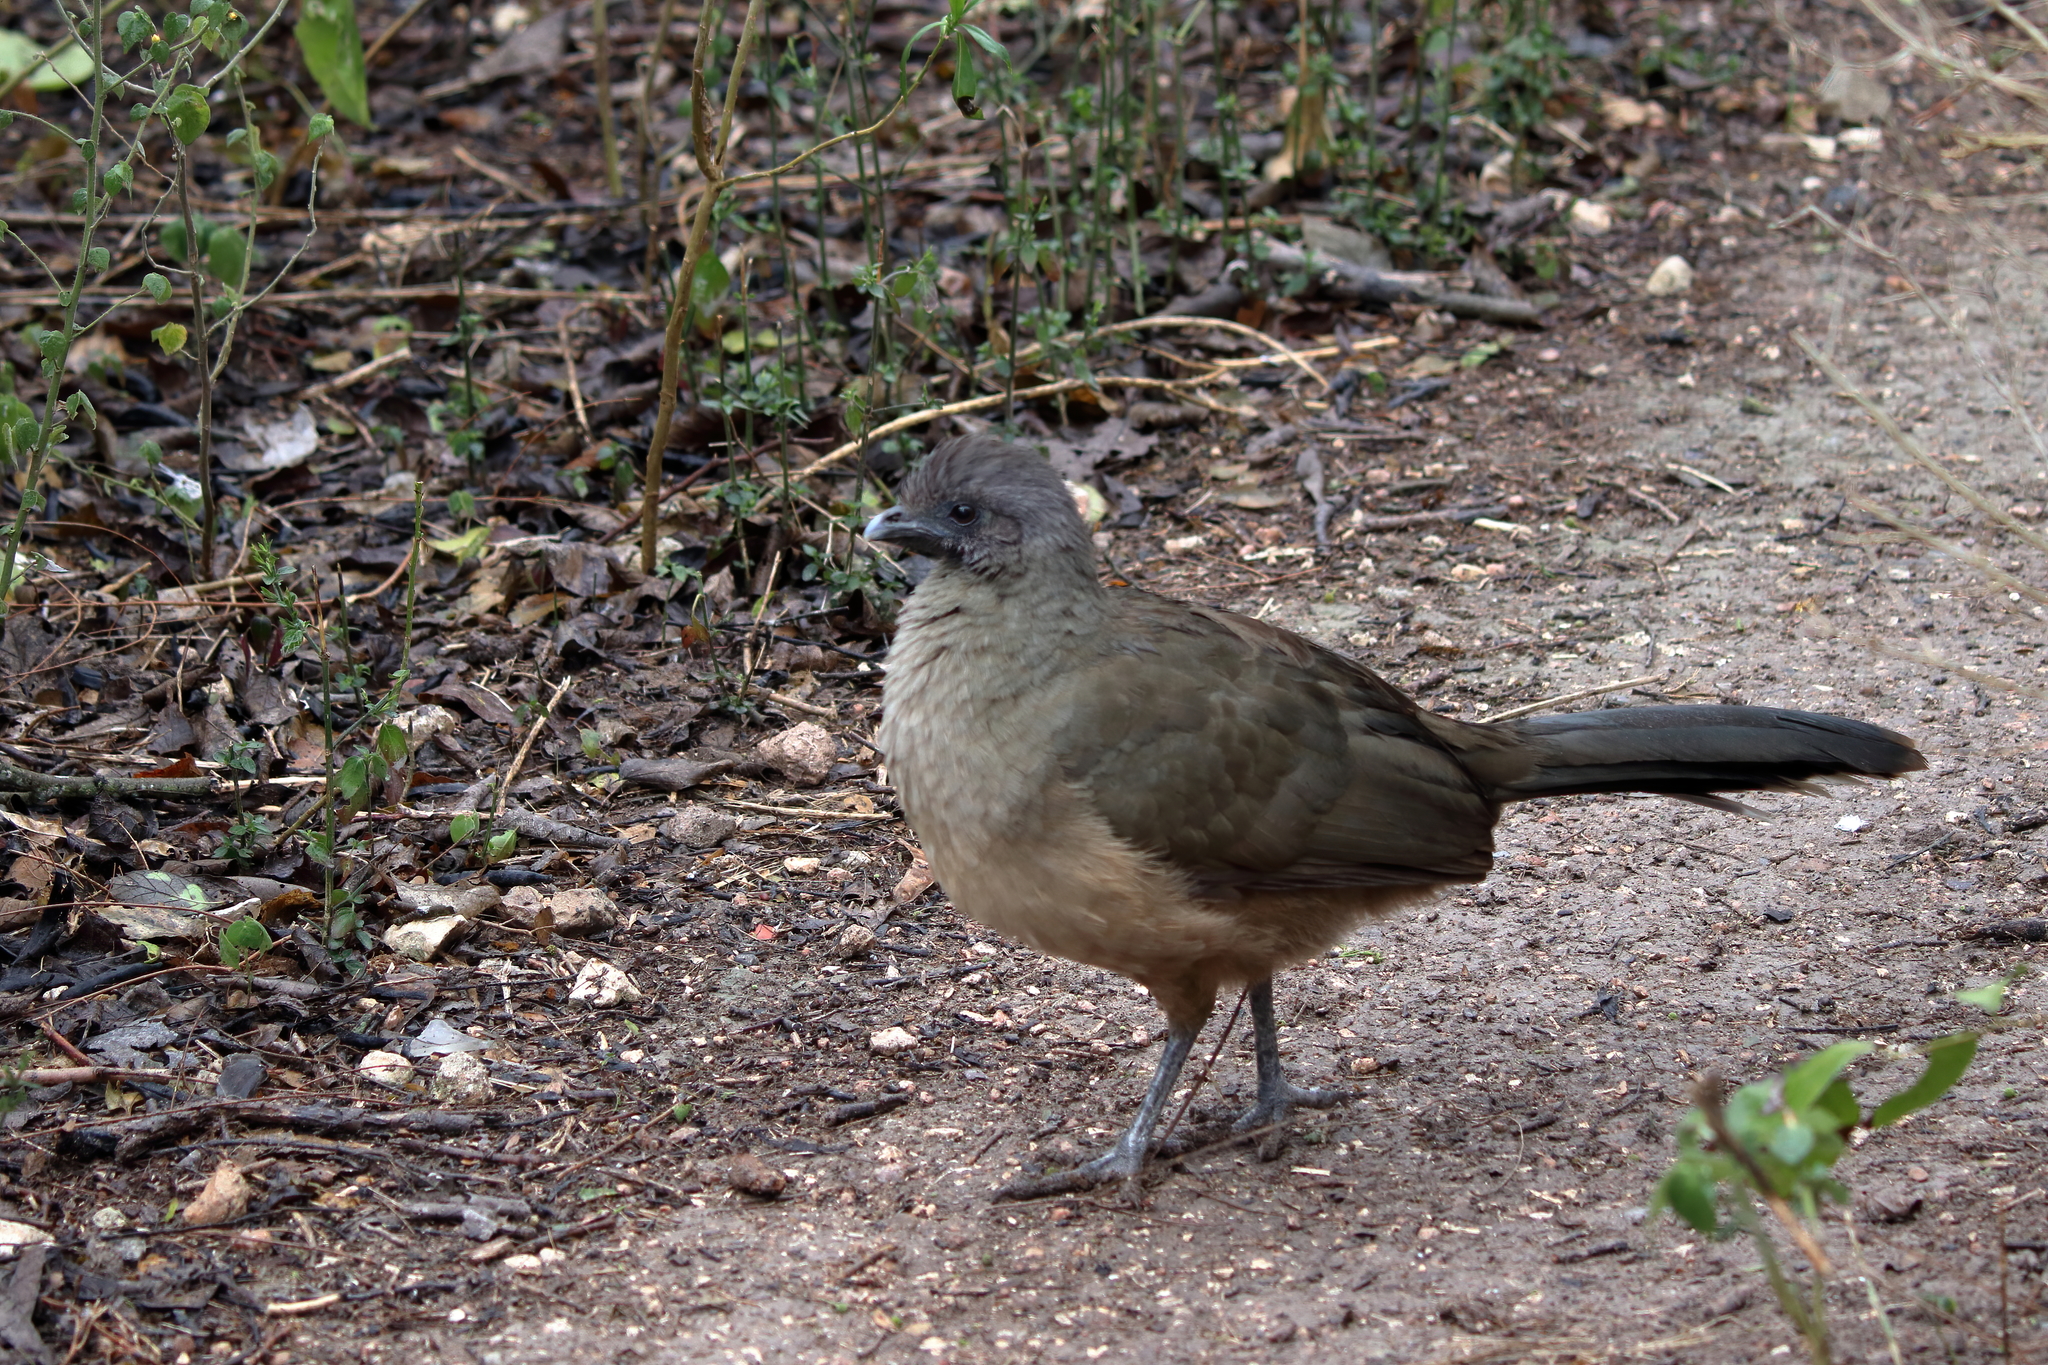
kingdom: Animalia
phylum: Chordata
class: Aves
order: Galliformes
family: Cracidae
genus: Ortalis
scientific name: Ortalis vetula
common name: Plain chachalaca
